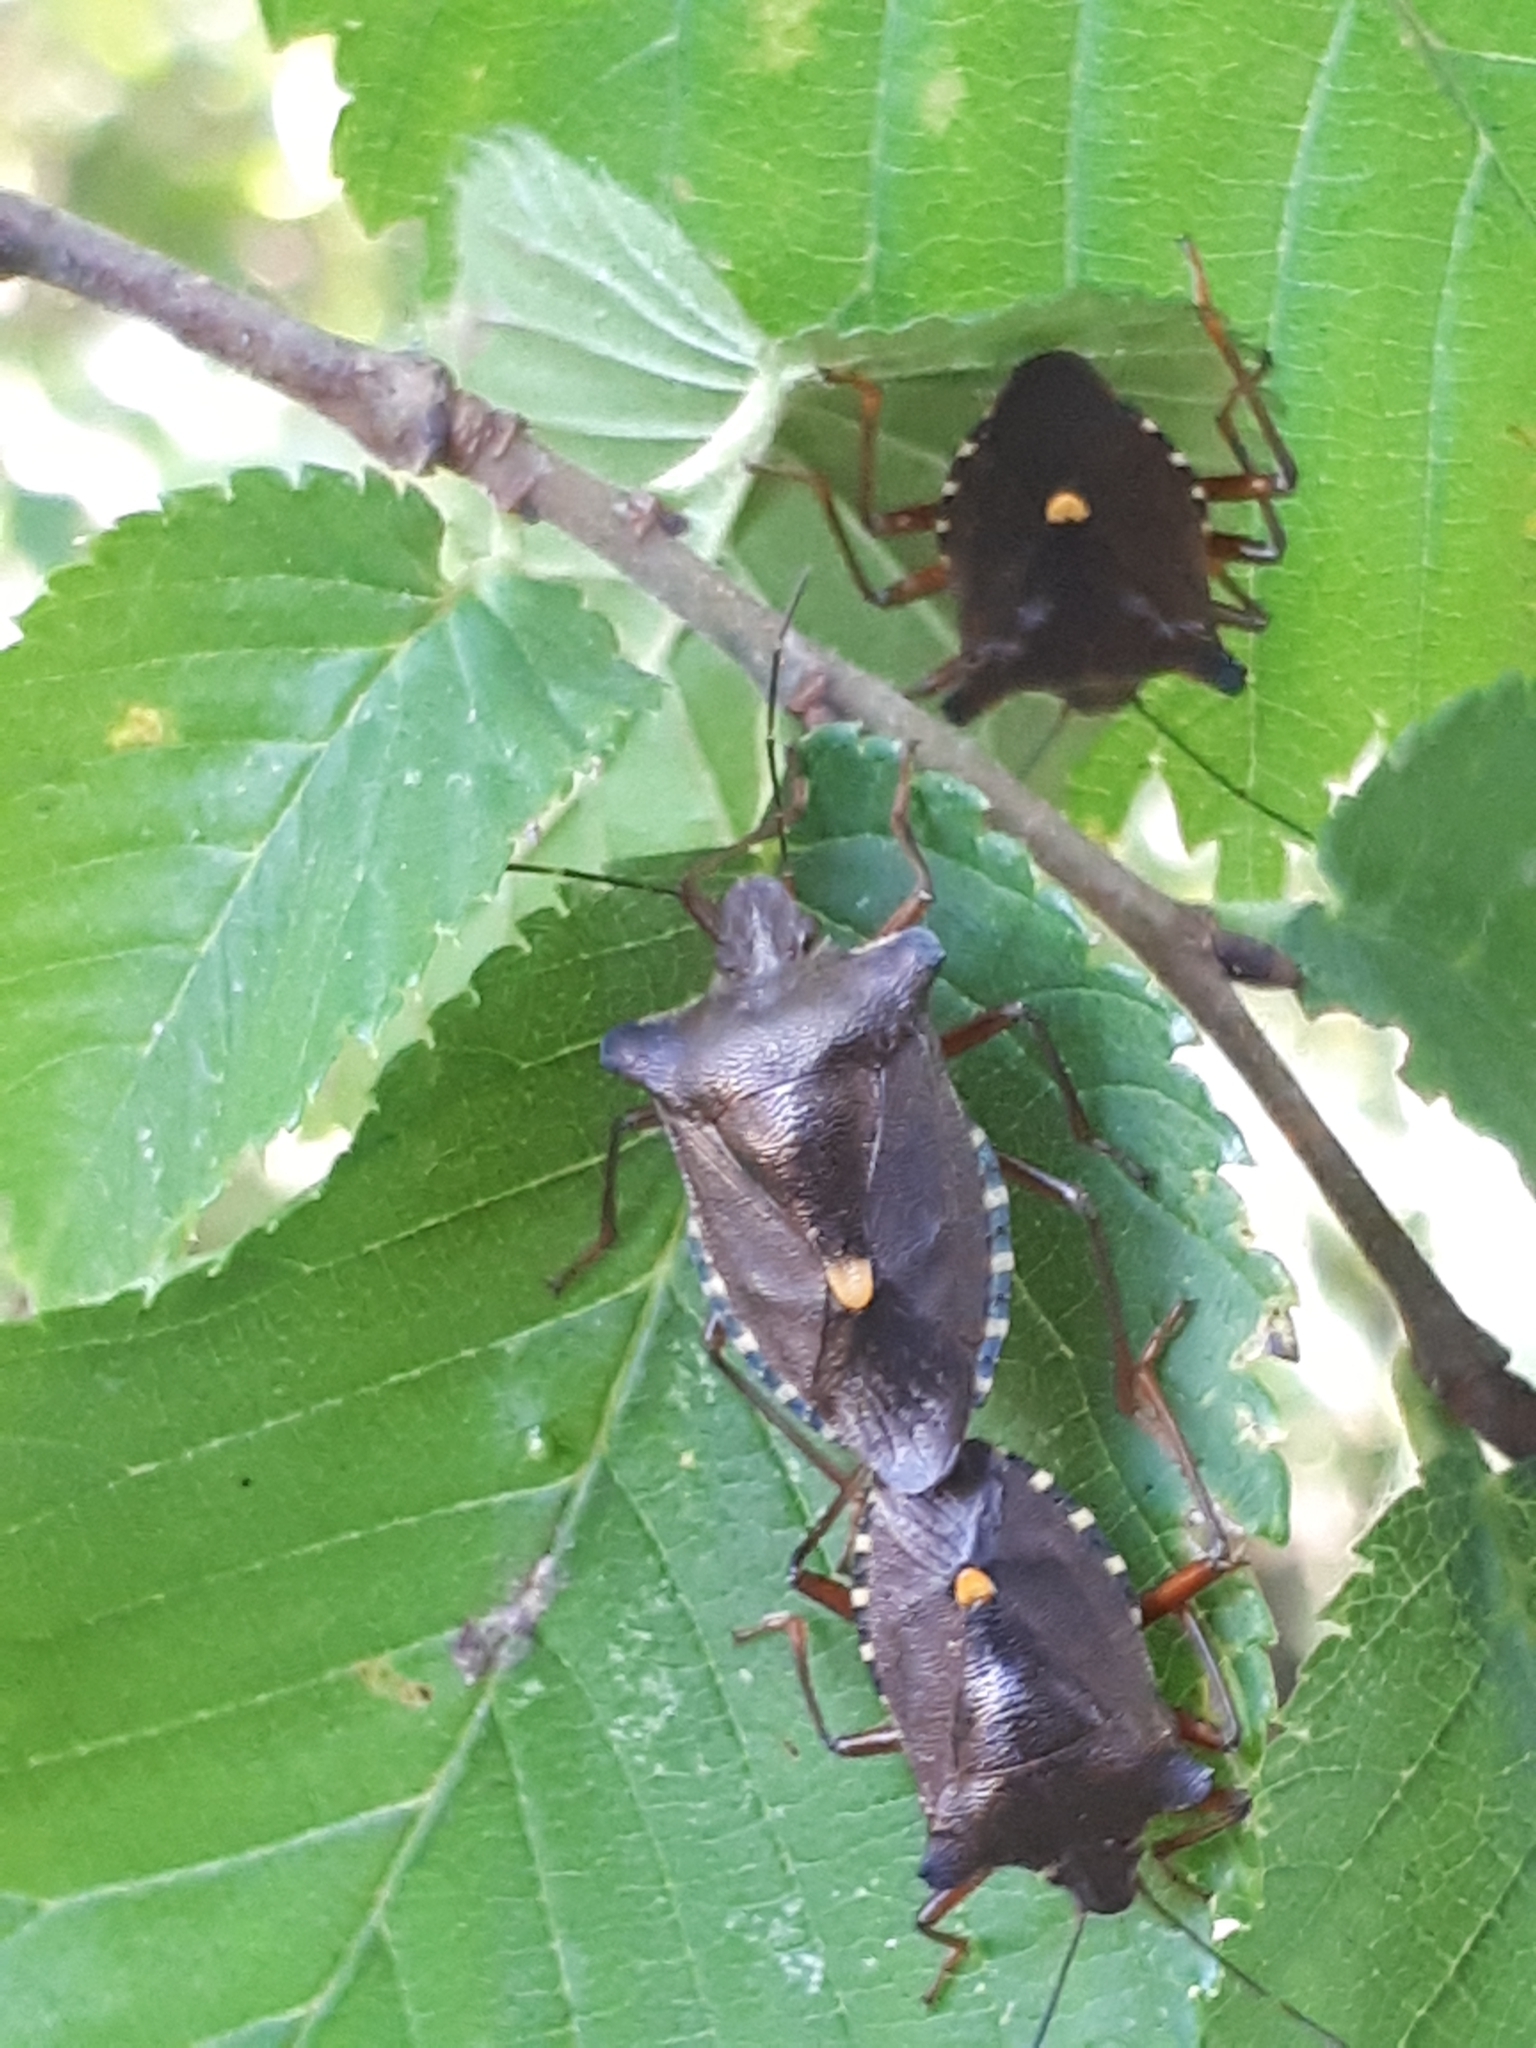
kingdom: Animalia
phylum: Arthropoda
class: Insecta
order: Hemiptera
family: Pentatomidae
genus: Pentatoma
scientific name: Pentatoma rufipes
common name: Forest bug
